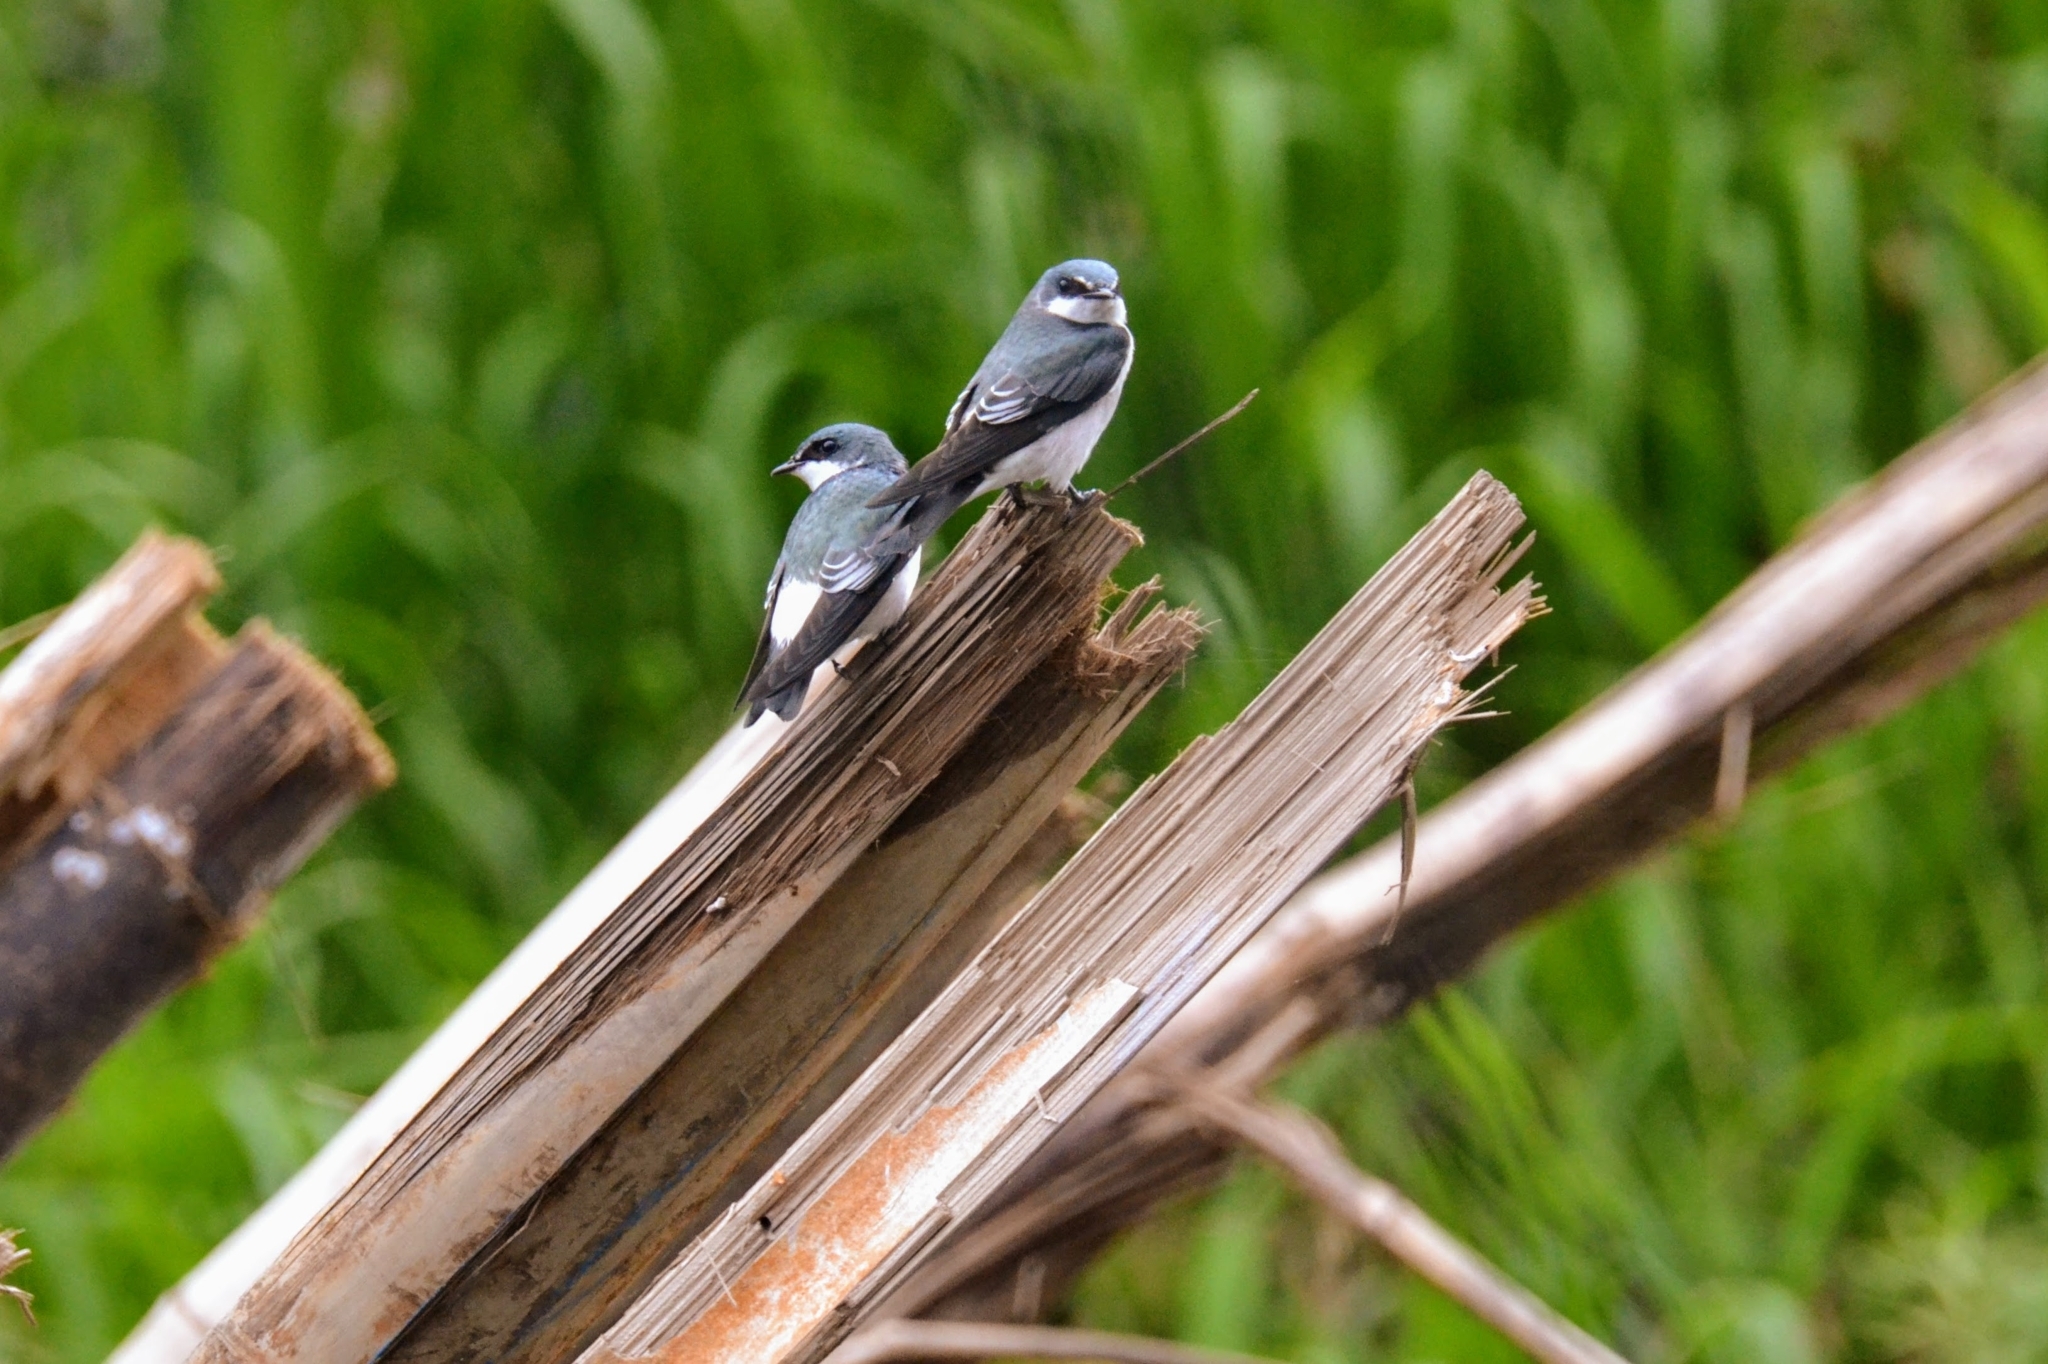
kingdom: Animalia
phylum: Chordata
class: Aves
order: Passeriformes
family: Hirundinidae
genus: Tachycineta
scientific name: Tachycineta albilinea
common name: Mangrove swallow
